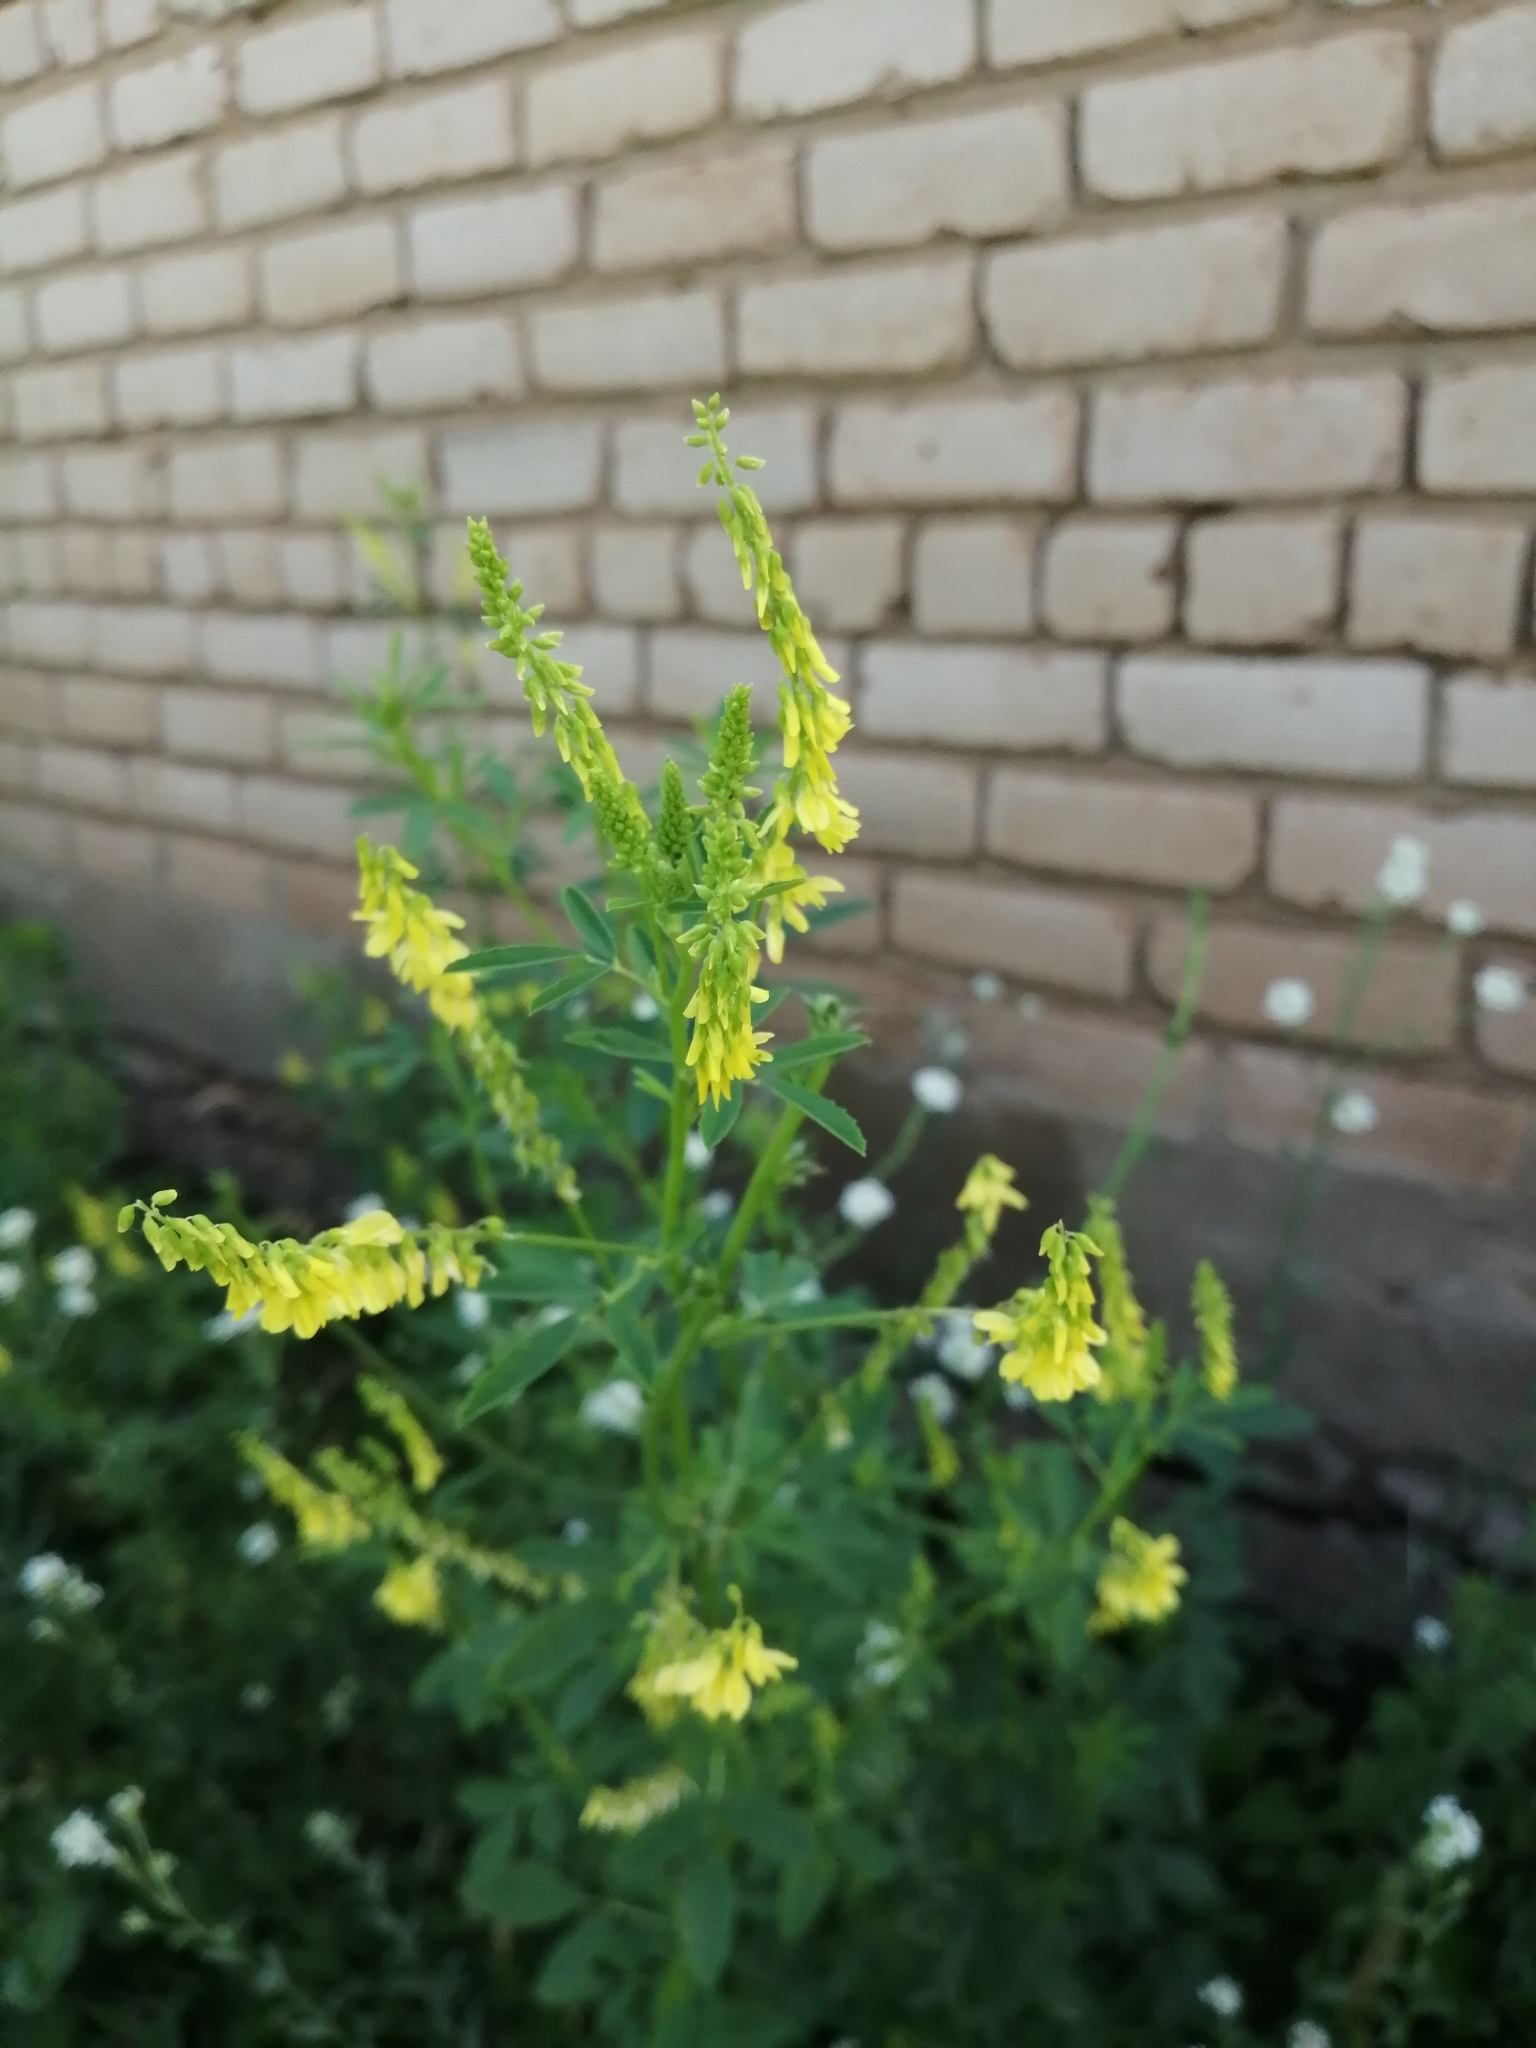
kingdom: Plantae
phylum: Tracheophyta
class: Magnoliopsida
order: Fabales
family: Fabaceae
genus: Melilotus
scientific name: Melilotus officinalis
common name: Sweetclover
